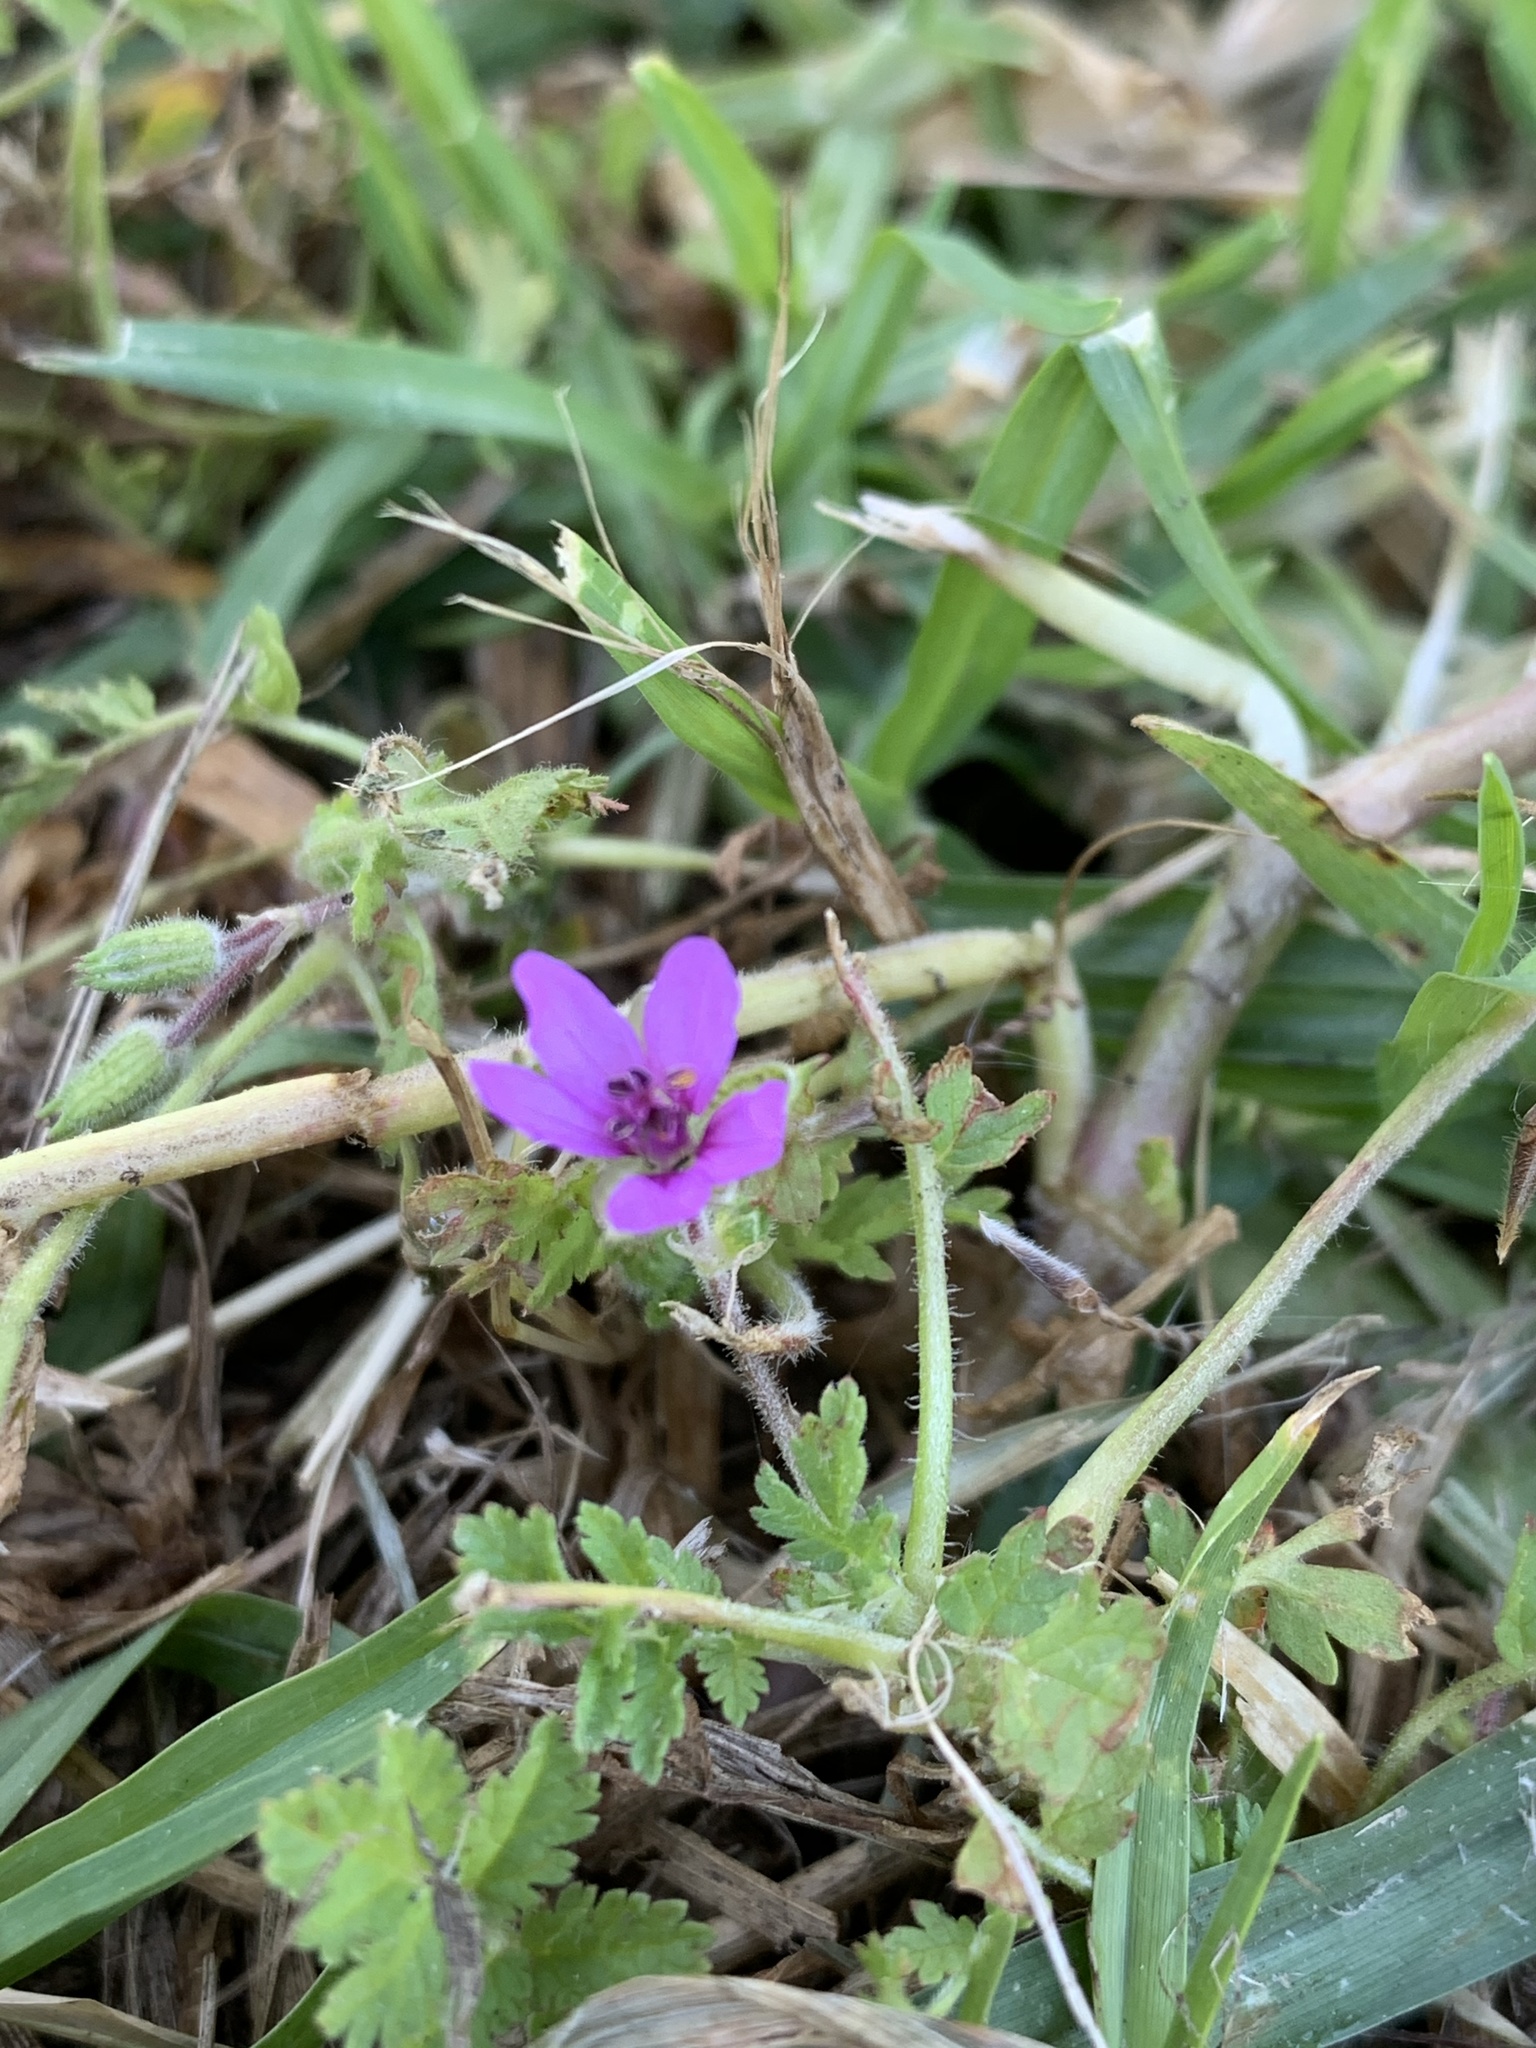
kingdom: Plantae
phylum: Tracheophyta
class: Magnoliopsida
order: Geraniales
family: Geraniaceae
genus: Erodium
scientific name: Erodium moschatum
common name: Musk stork's-bill
